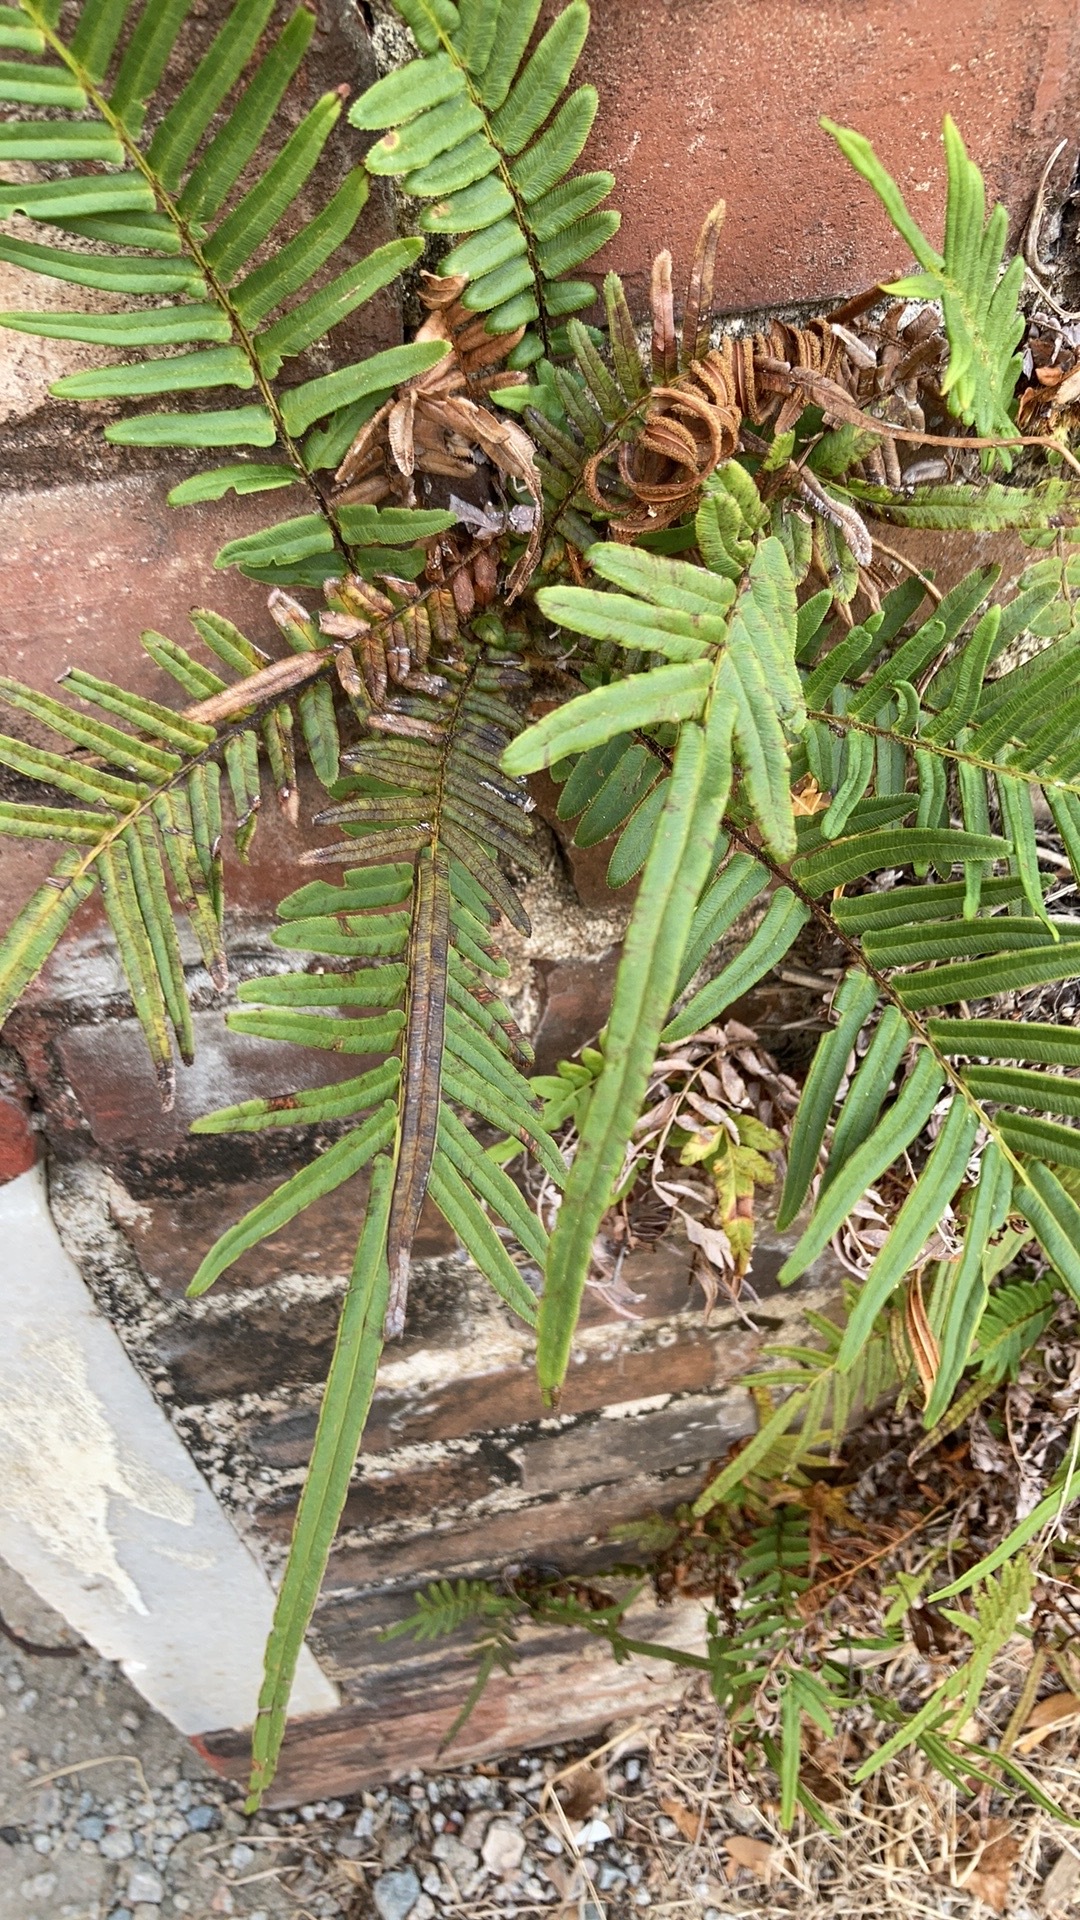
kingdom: Plantae
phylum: Tracheophyta
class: Polypodiopsida
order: Polypodiales
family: Pteridaceae
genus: Pteris
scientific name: Pteris vittata
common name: Ladder brake
